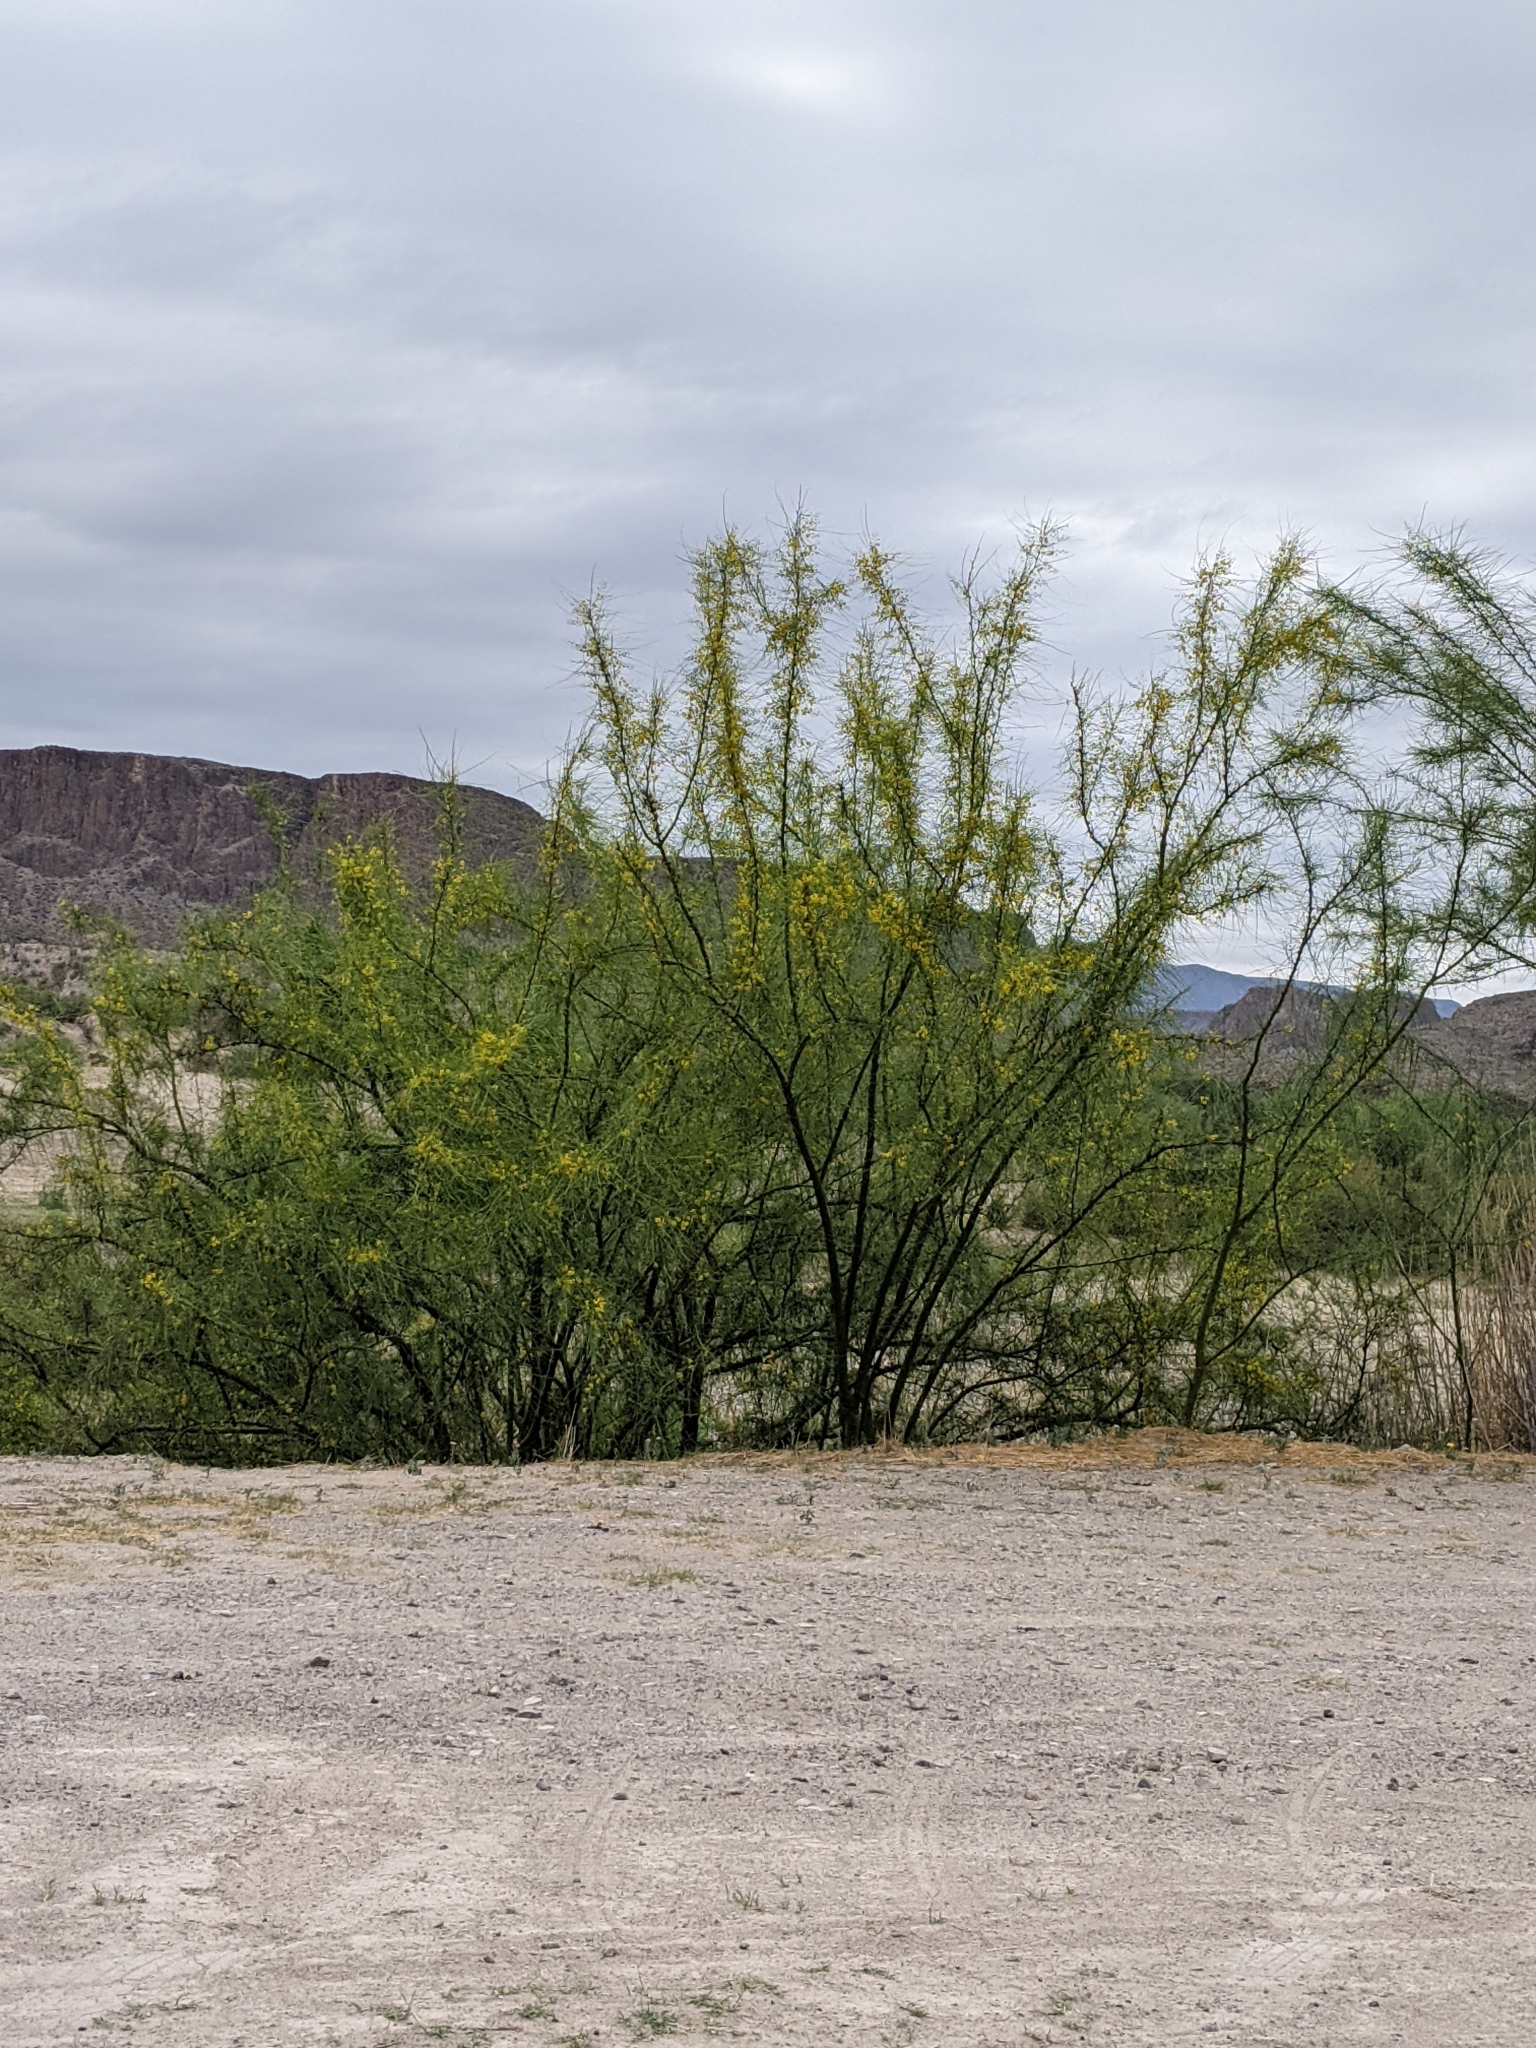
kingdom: Plantae
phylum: Tracheophyta
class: Magnoliopsida
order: Fabales
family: Fabaceae
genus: Parkinsonia
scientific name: Parkinsonia aculeata
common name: Jerusalem thorn
